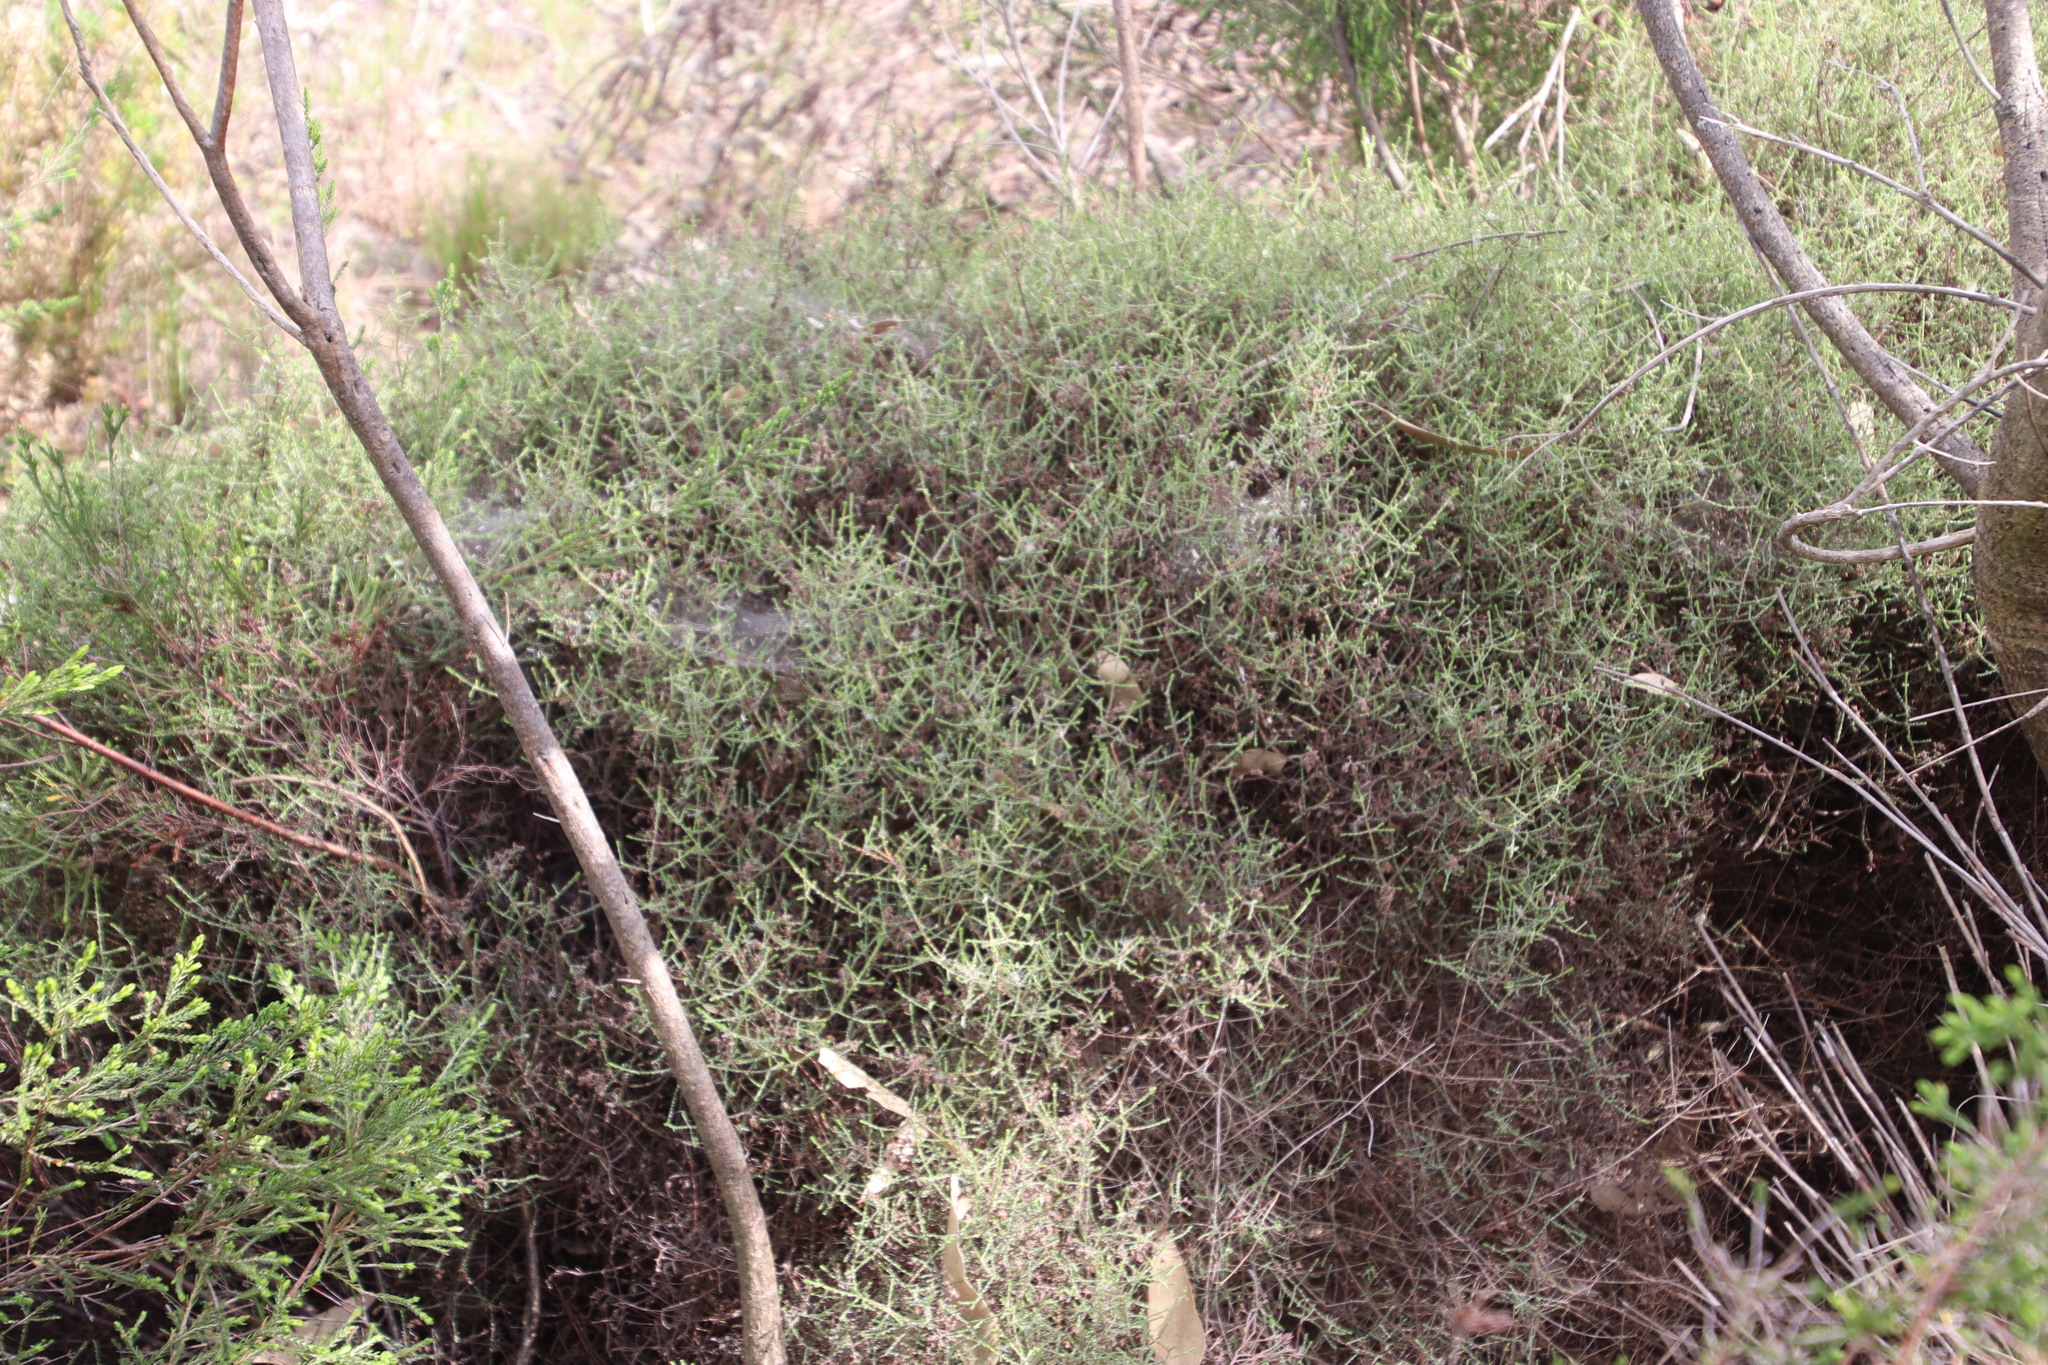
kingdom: Plantae
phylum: Tracheophyta
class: Magnoliopsida
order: Asterales
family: Asteraceae
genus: Myrovernix
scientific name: Myrovernix scaber
